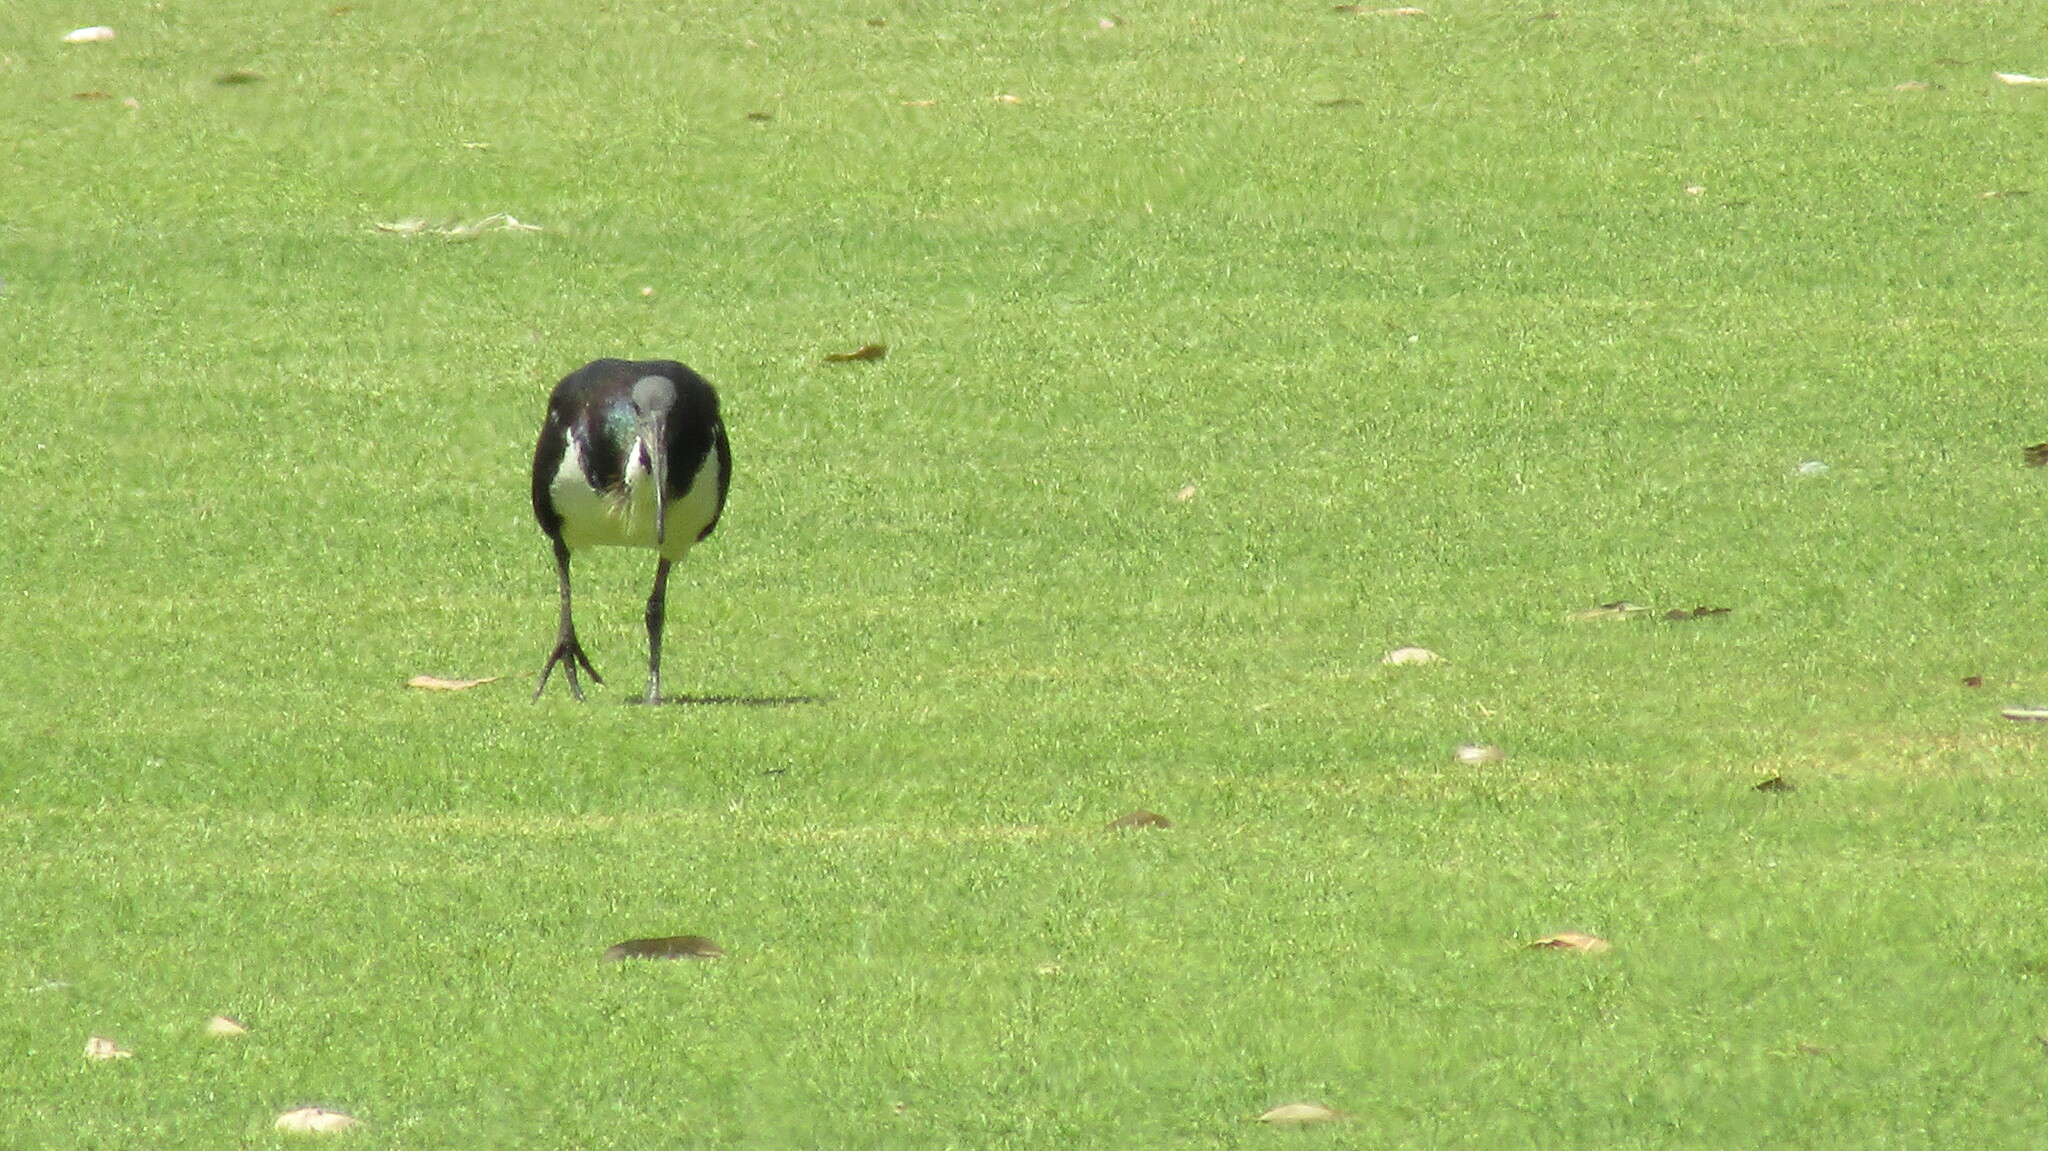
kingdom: Animalia
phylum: Chordata
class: Aves
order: Pelecaniformes
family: Threskiornithidae
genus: Threskiornis
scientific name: Threskiornis spinicollis
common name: Straw-necked ibis
